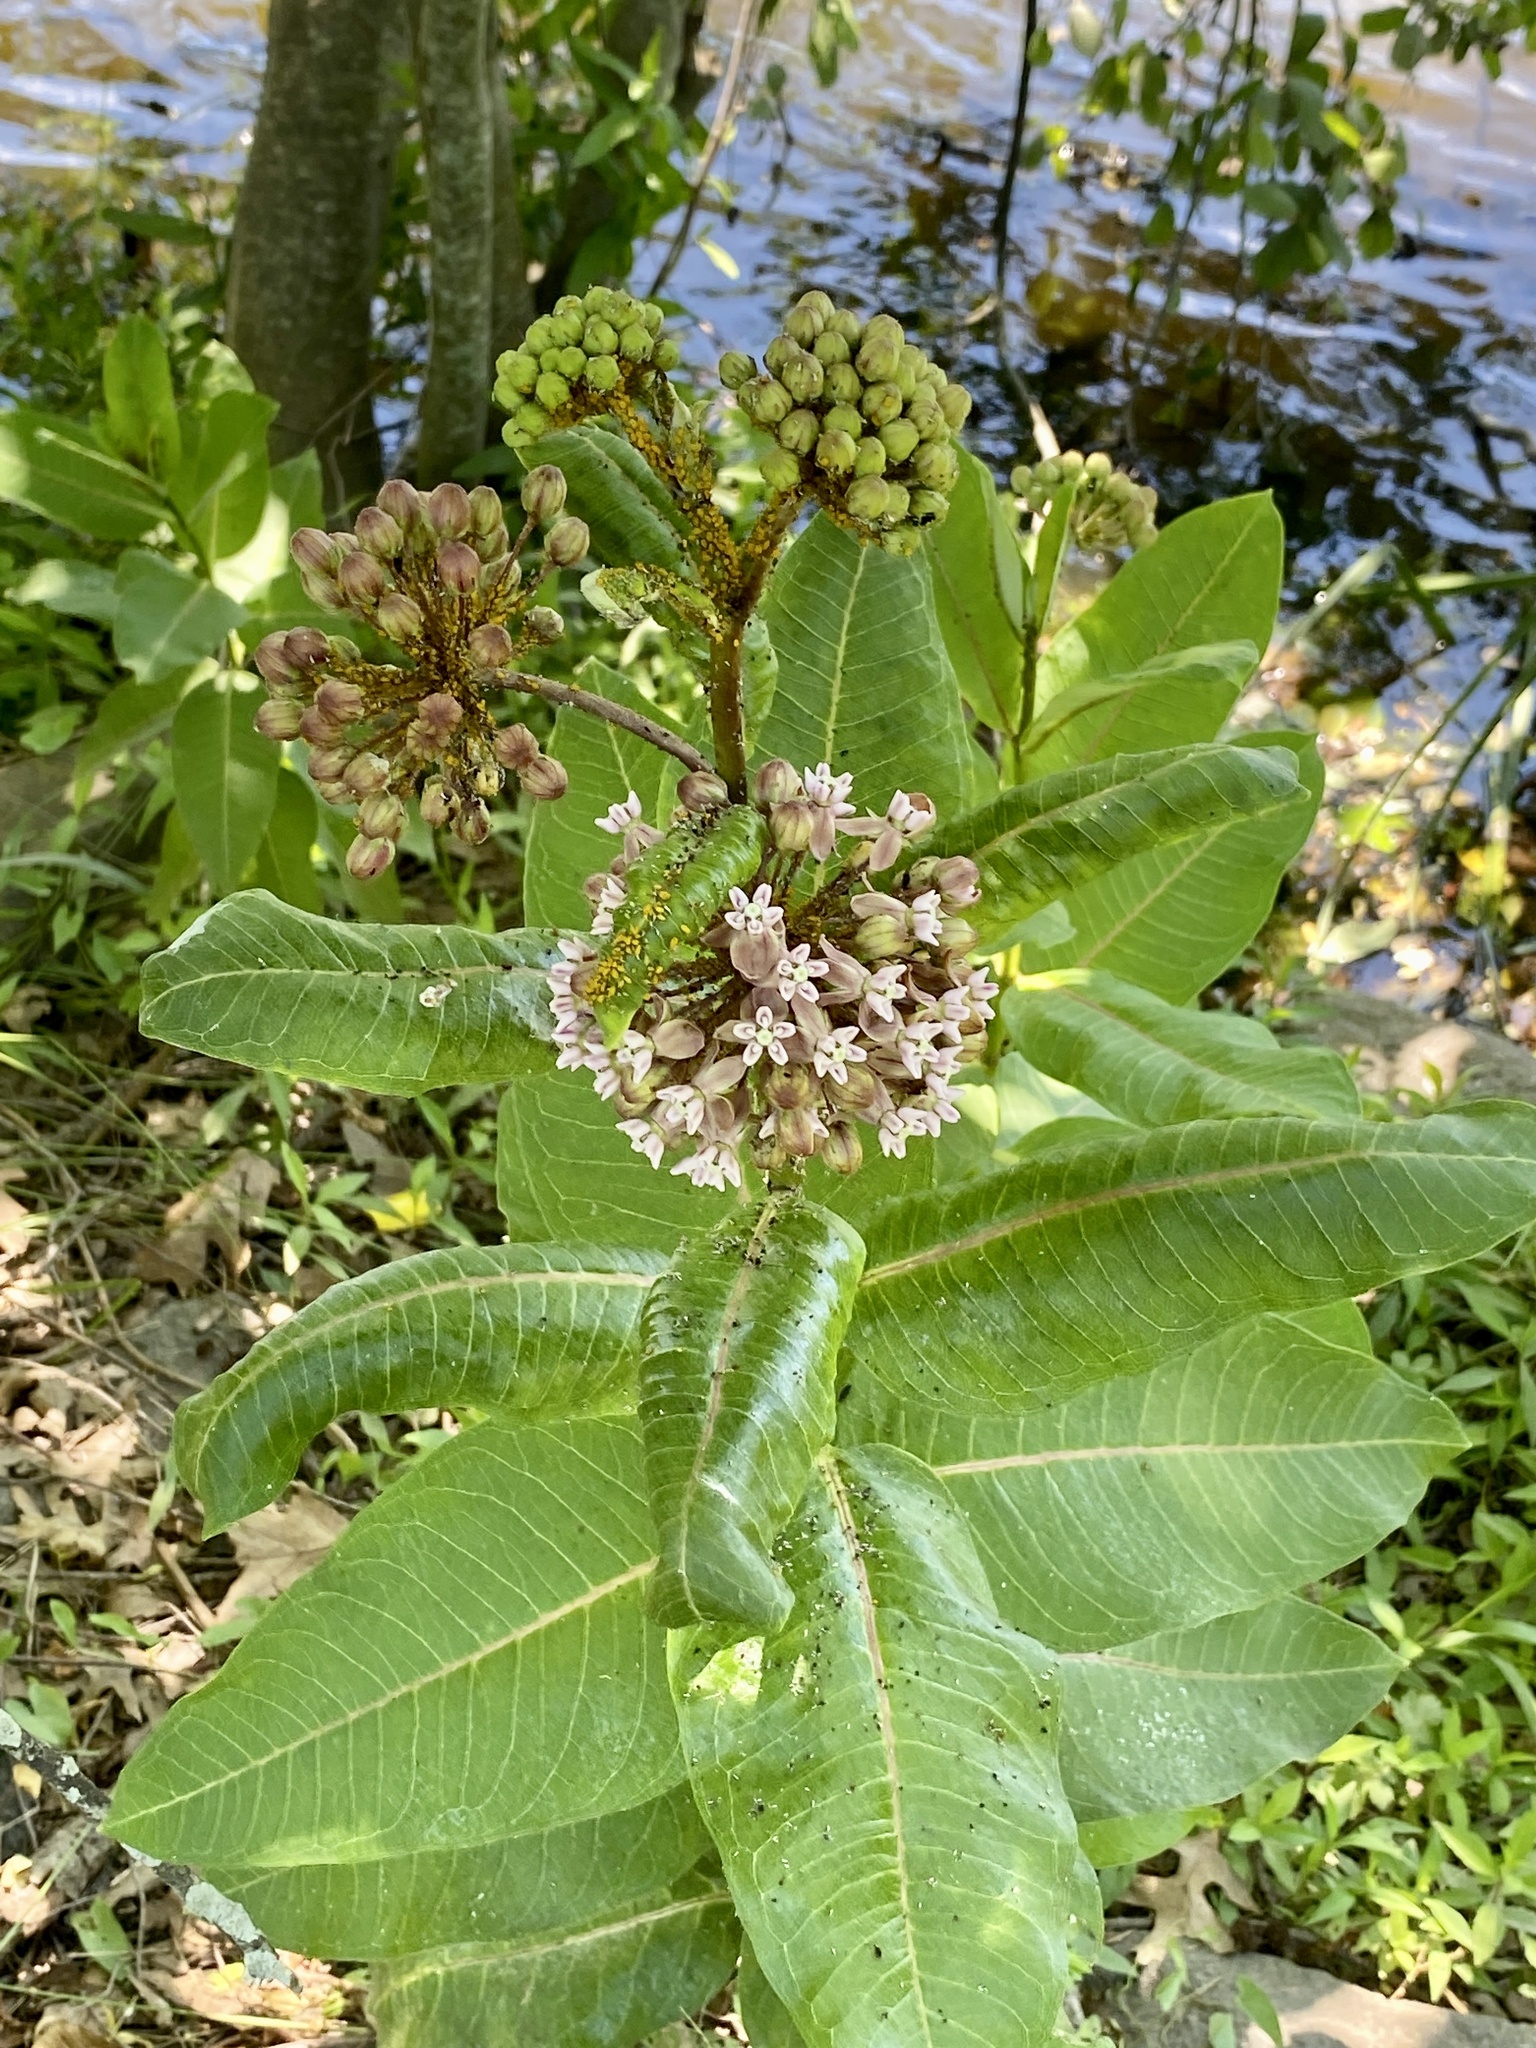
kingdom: Plantae
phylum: Tracheophyta
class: Magnoliopsida
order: Gentianales
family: Apocynaceae
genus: Asclepias
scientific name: Asclepias syriaca
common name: Common milkweed
